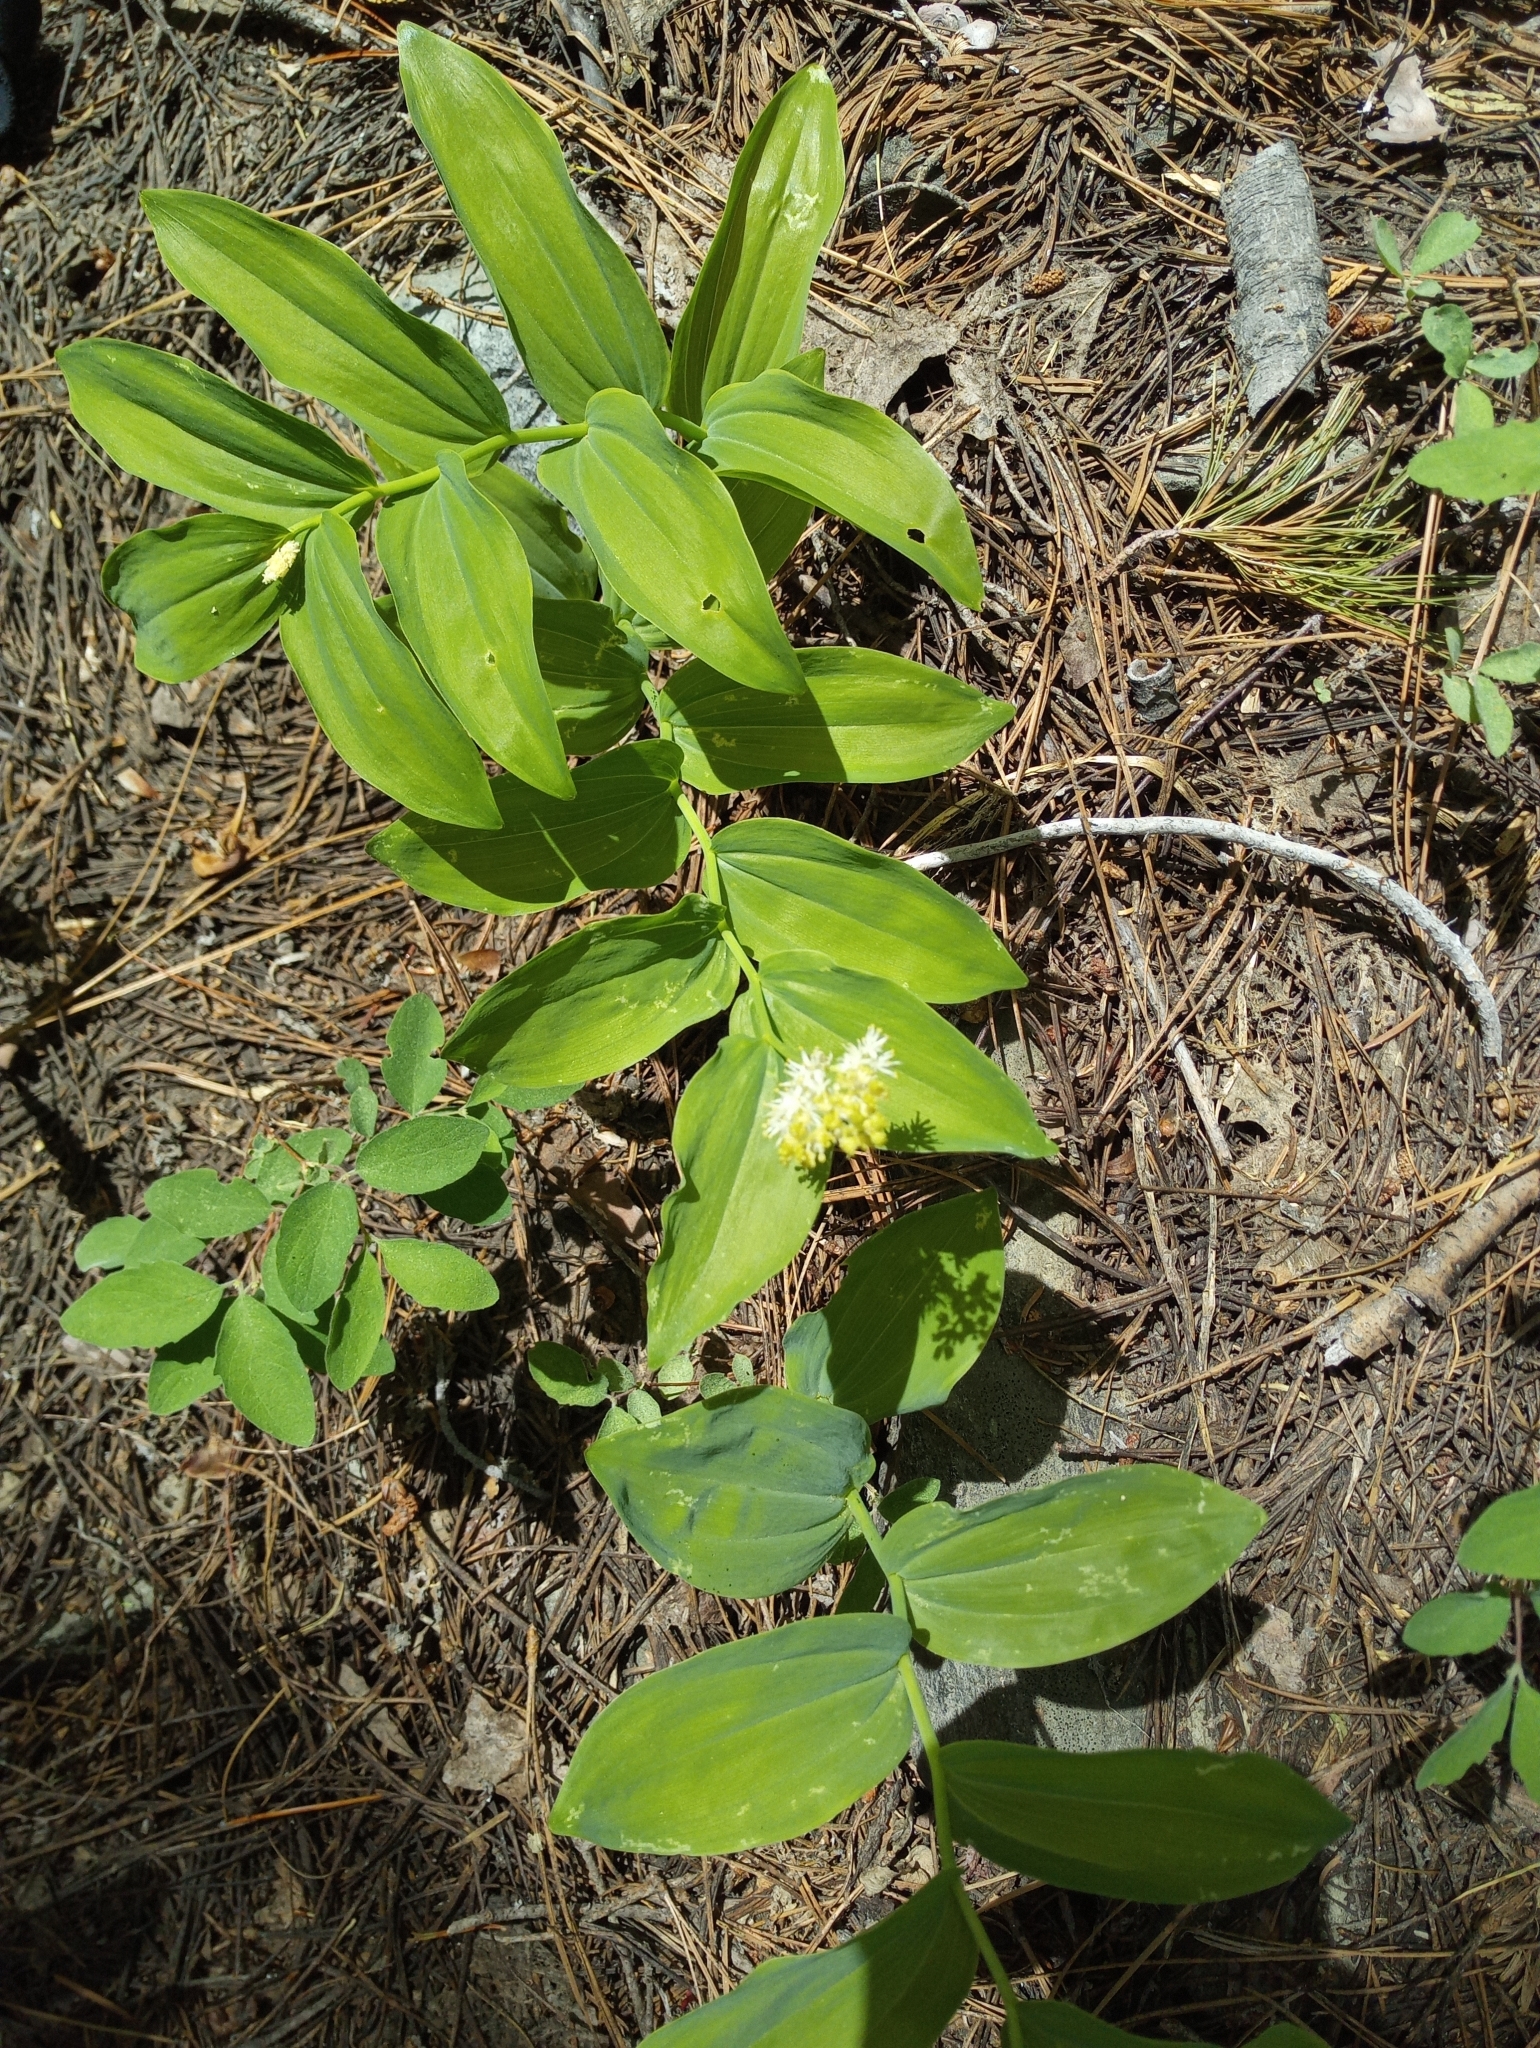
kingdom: Plantae
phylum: Tracheophyta
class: Liliopsida
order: Asparagales
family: Asparagaceae
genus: Maianthemum
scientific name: Maianthemum racemosum
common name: False spikenard
